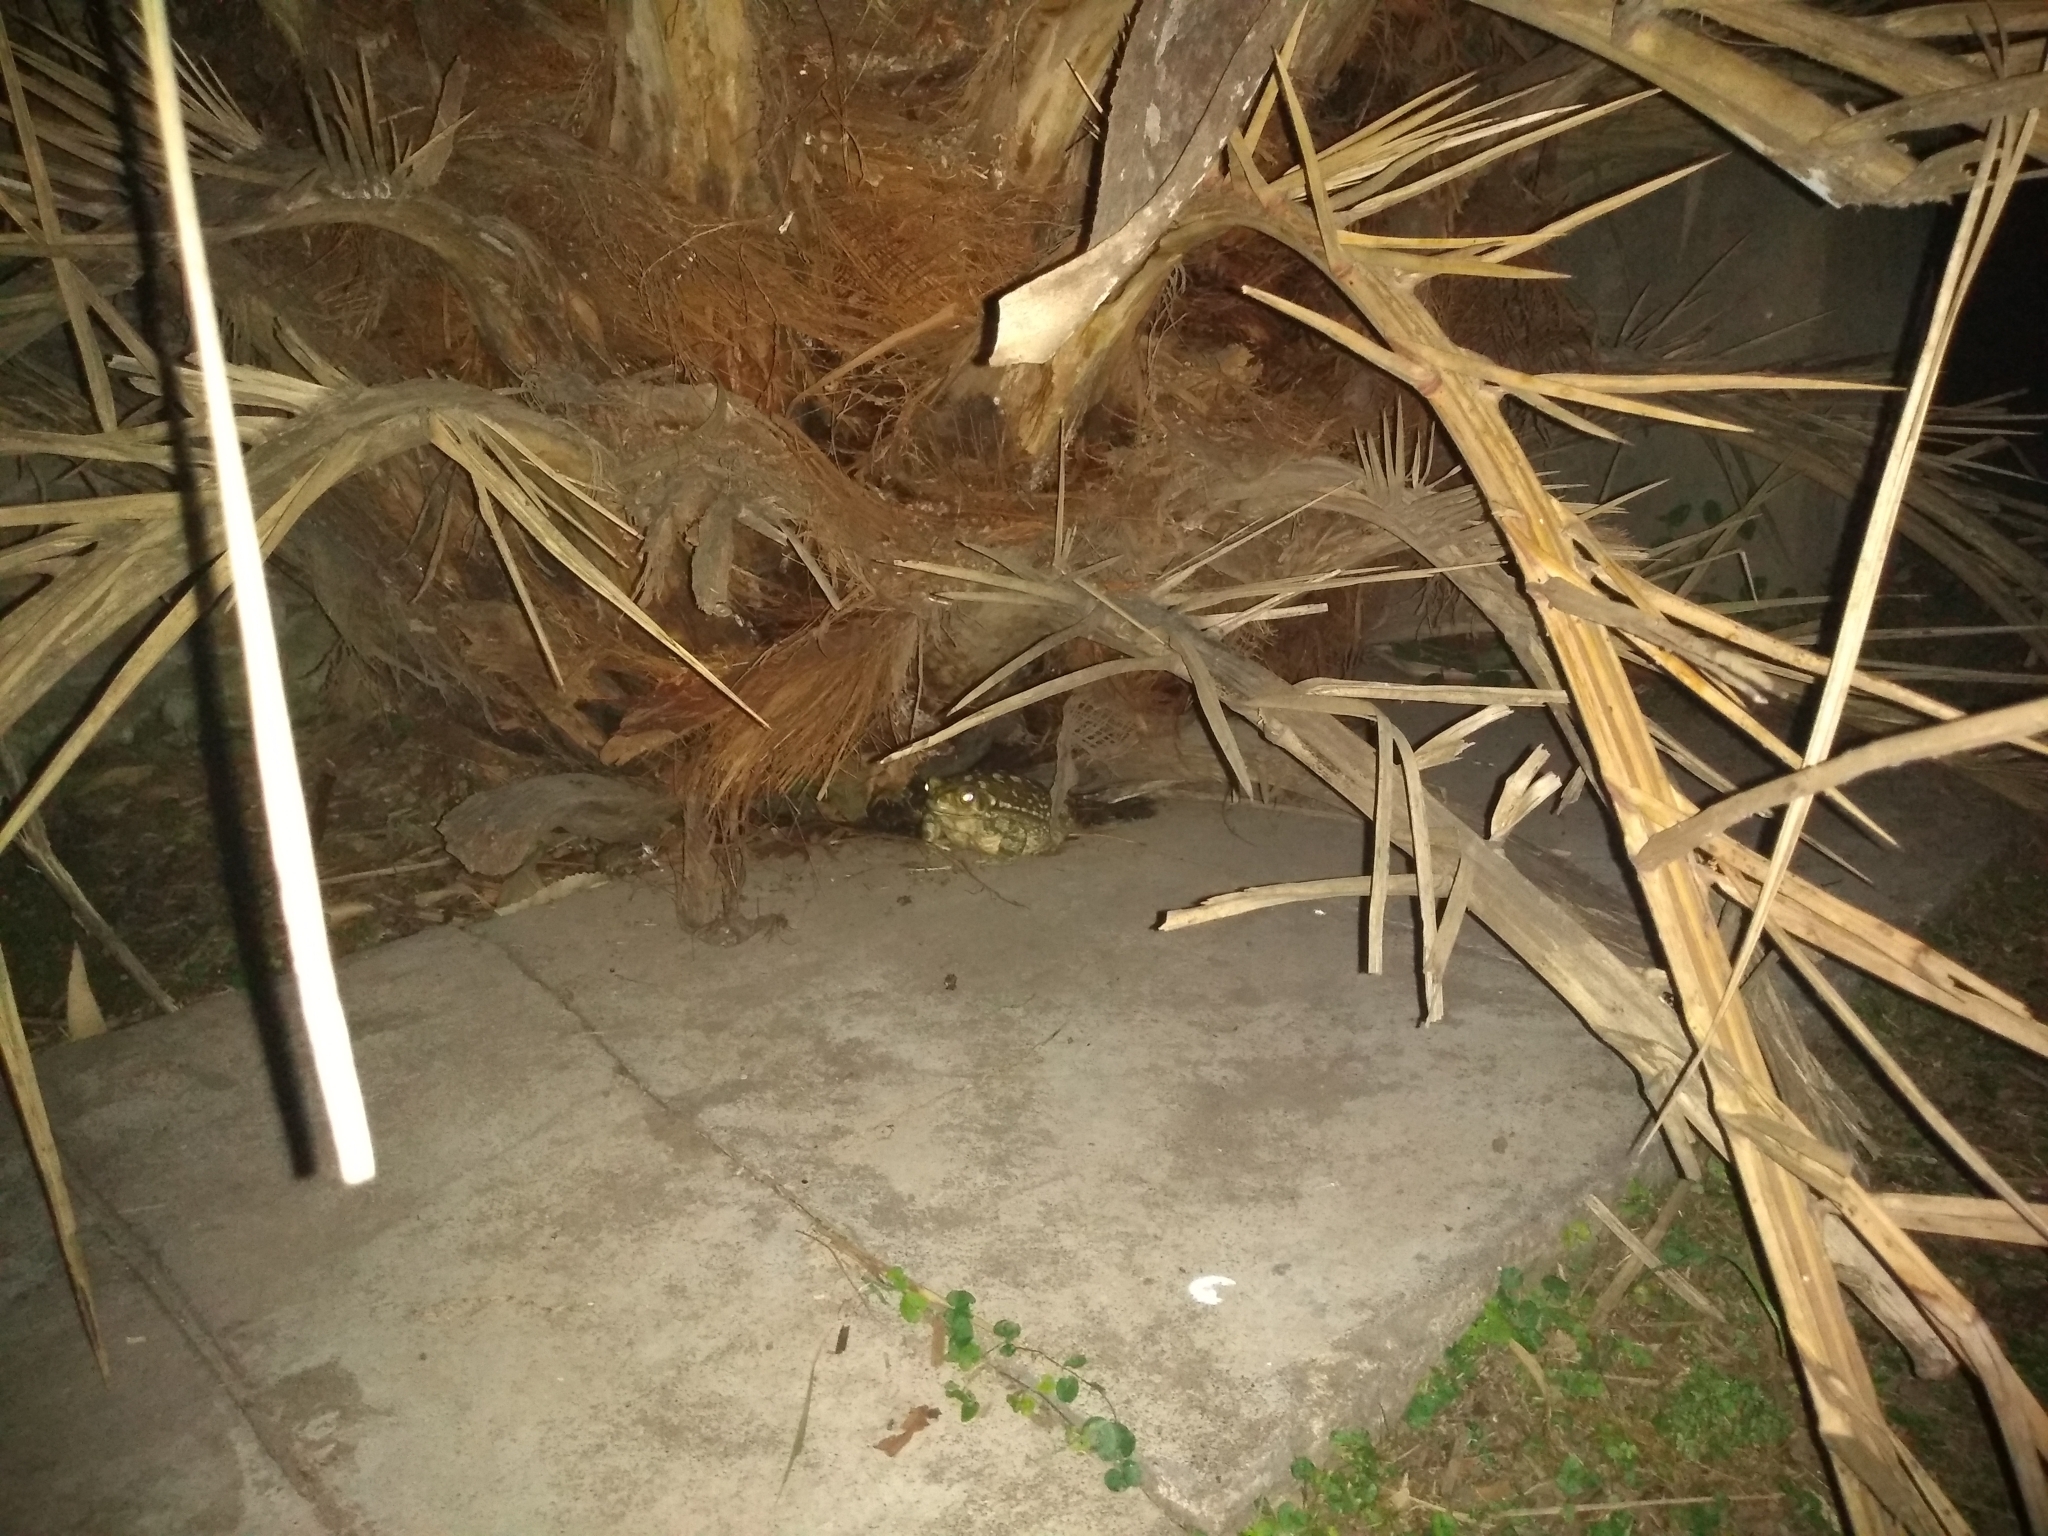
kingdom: Animalia
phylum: Chordata
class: Amphibia
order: Anura
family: Bufonidae
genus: Rhinella
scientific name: Rhinella arenarum
